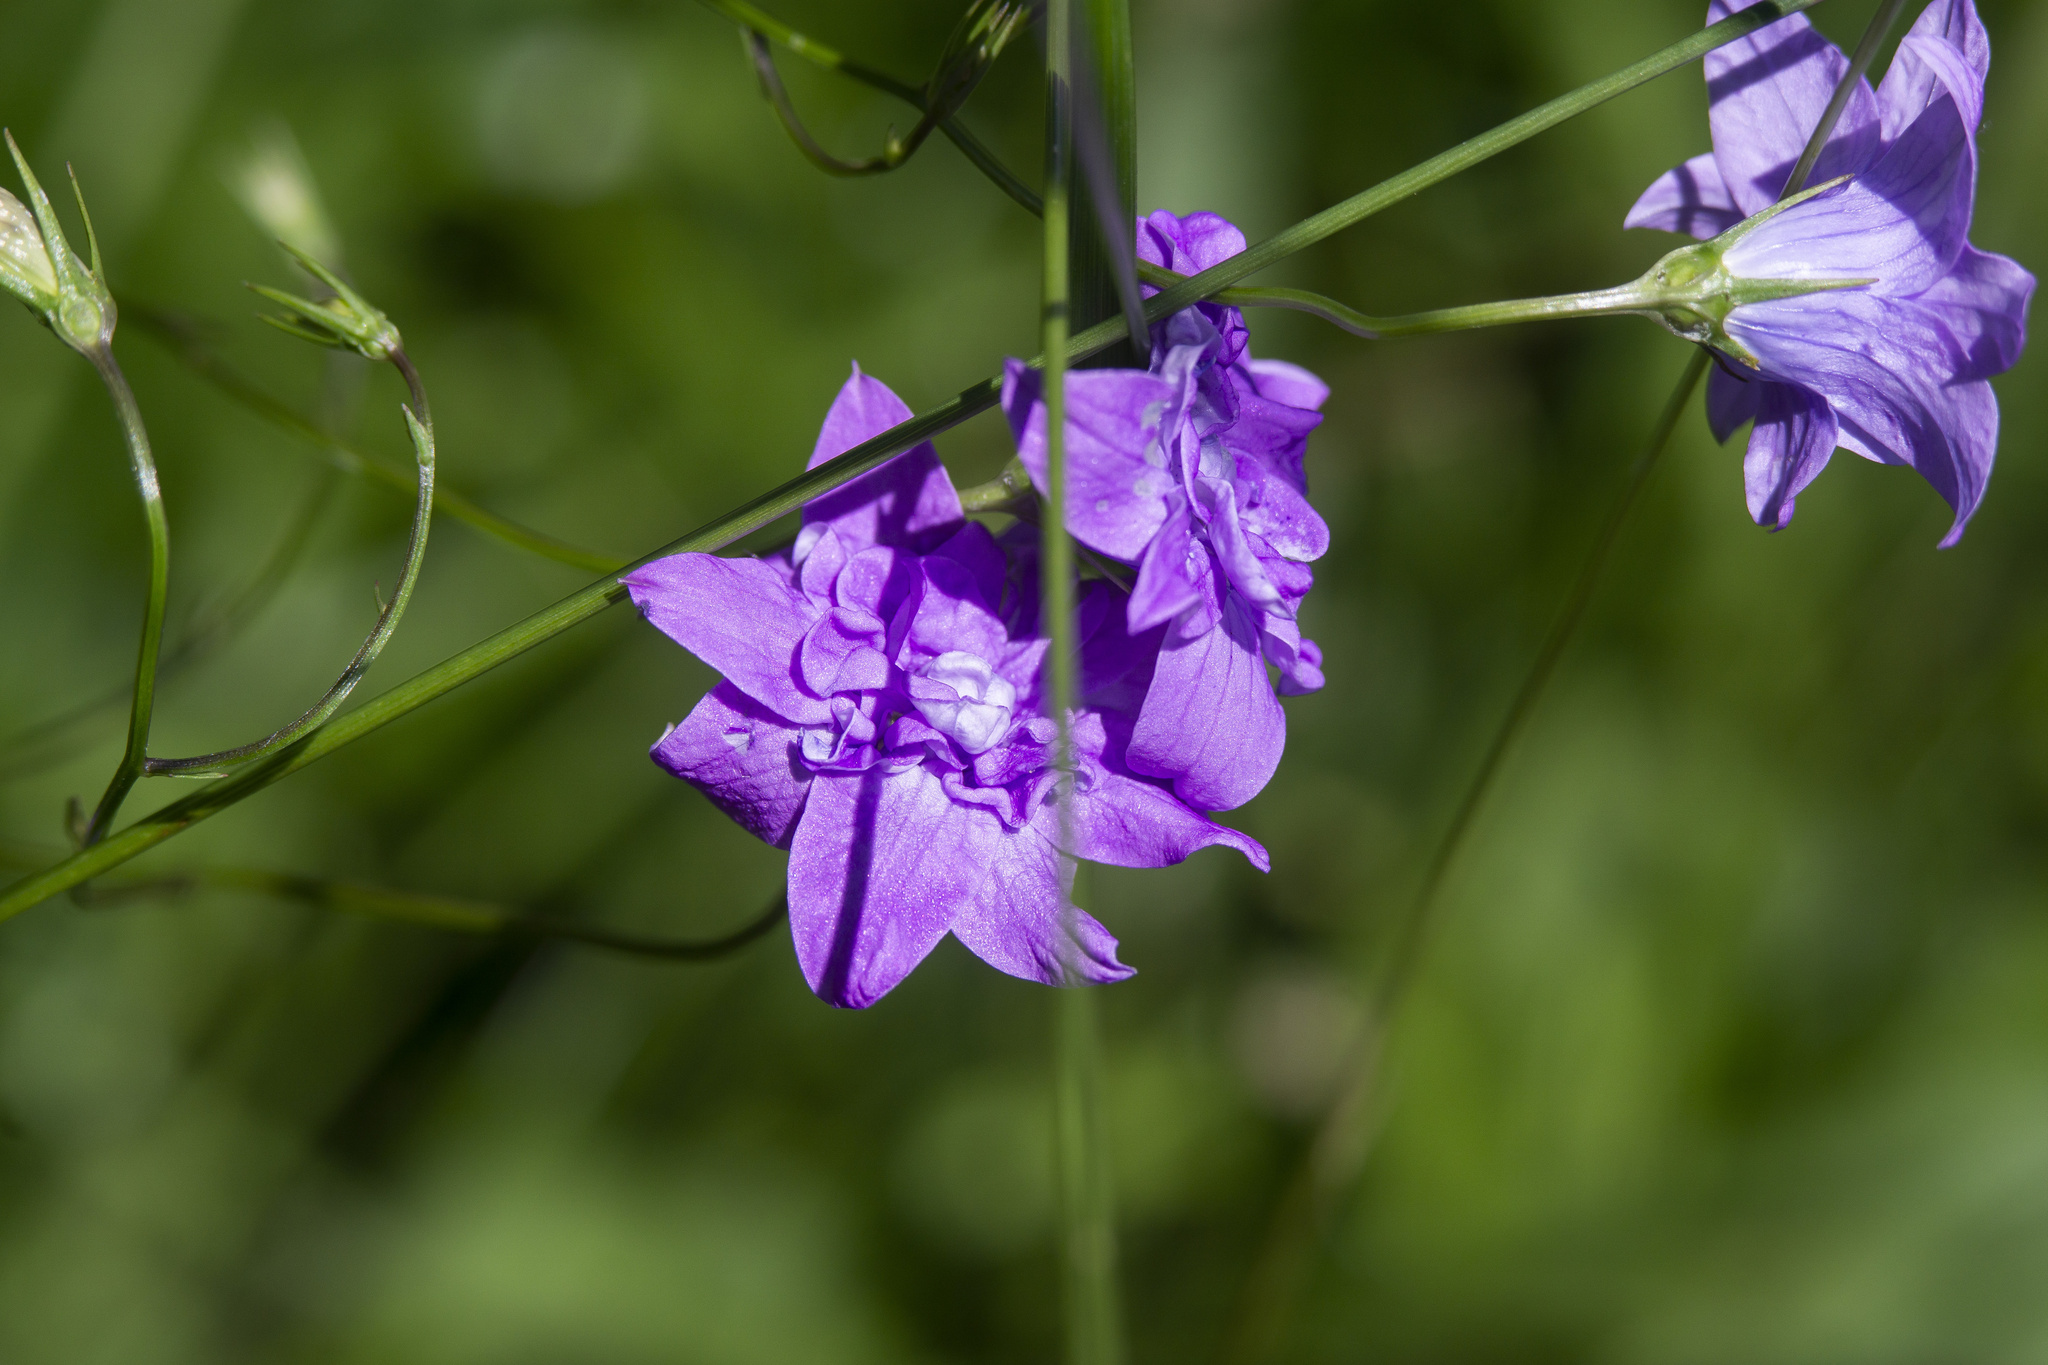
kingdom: Plantae
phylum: Tracheophyta
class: Magnoliopsida
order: Asterales
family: Campanulaceae
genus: Campanula
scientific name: Campanula patula
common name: Spreading bellflower
